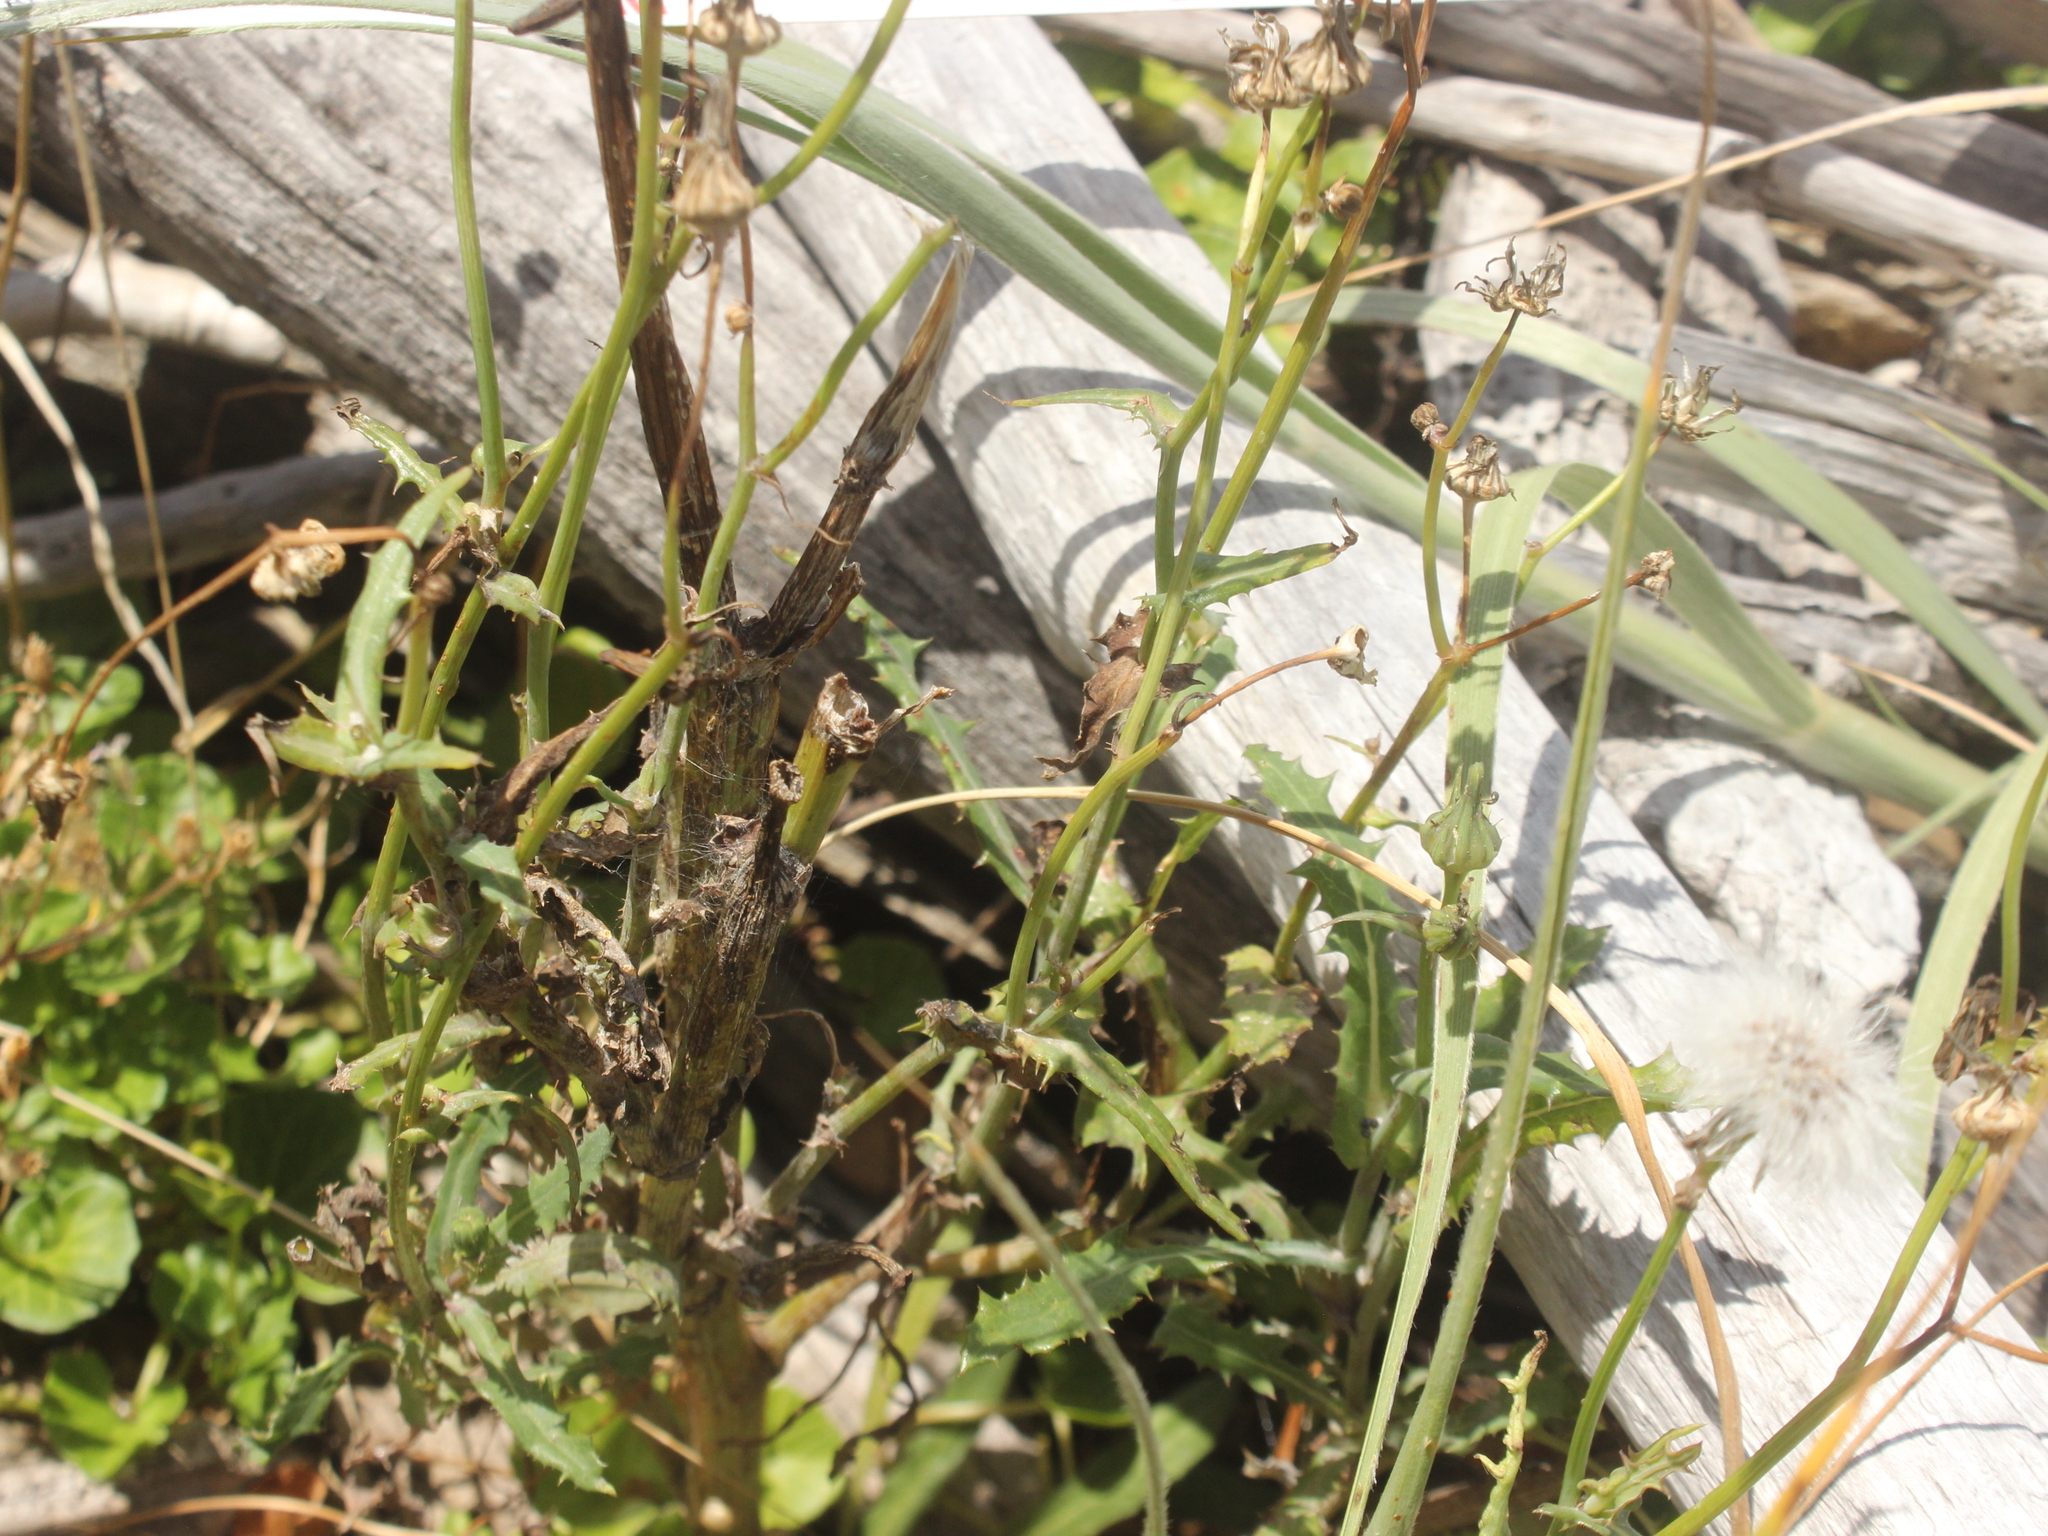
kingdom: Plantae
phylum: Tracheophyta
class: Magnoliopsida
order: Asterales
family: Asteraceae
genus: Sonchus
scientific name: Sonchus asper
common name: Prickly sow-thistle
